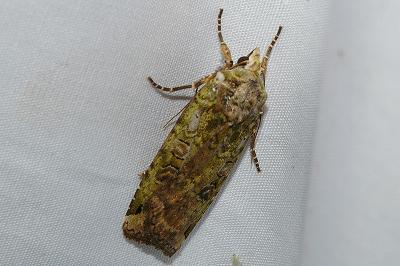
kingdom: Animalia
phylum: Arthropoda
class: Insecta
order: Lepidoptera
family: Noctuidae
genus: Xestia
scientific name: Xestia semiherbida
